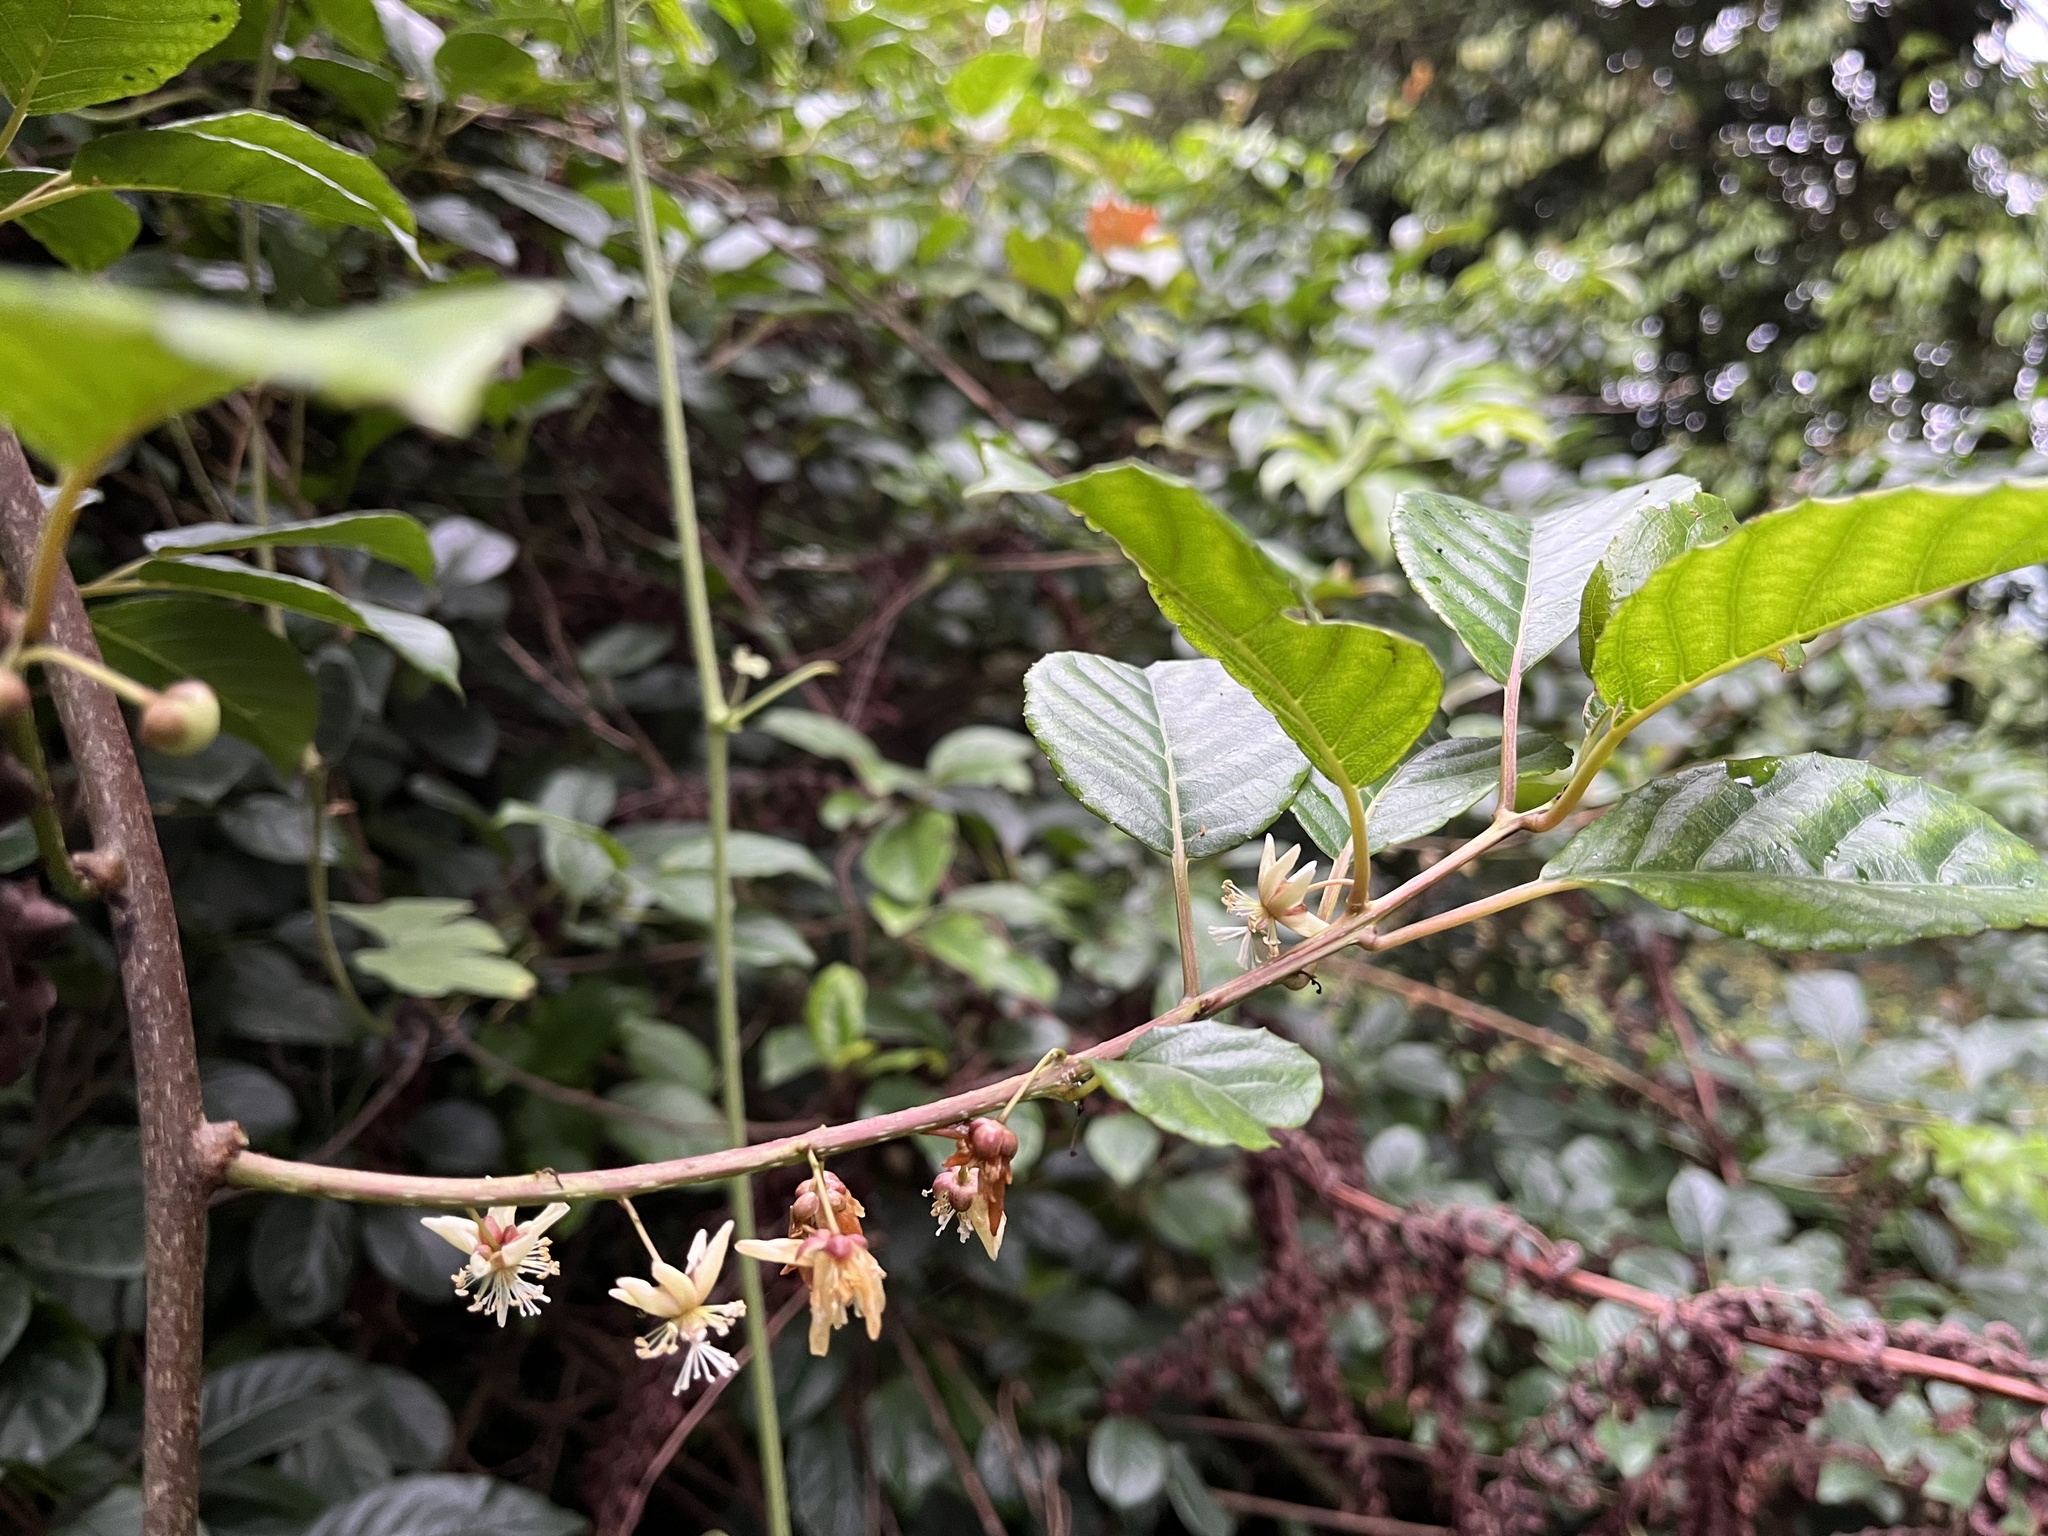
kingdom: Plantae
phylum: Tracheophyta
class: Magnoliopsida
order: Ericales
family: Actinidiaceae
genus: Actinidia
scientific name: Actinidia callosa
